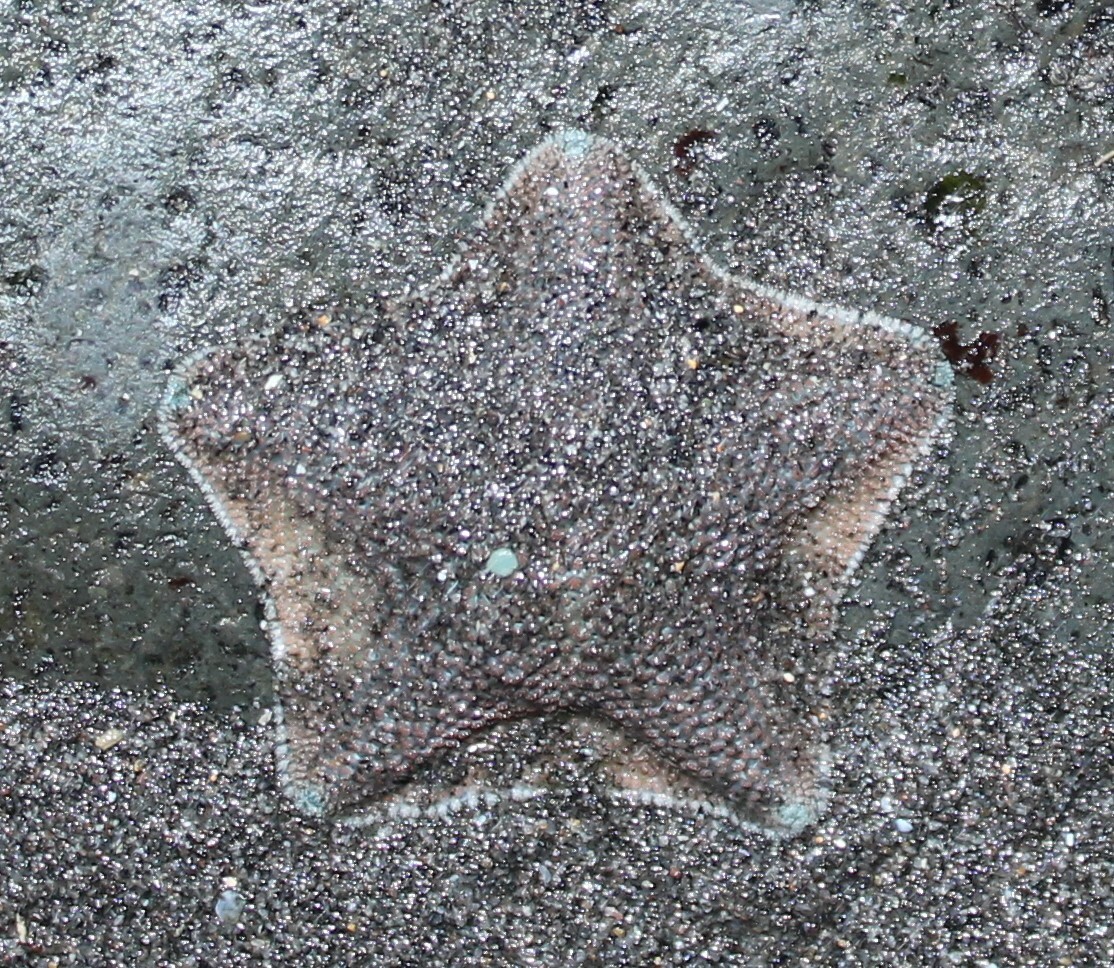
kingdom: Animalia
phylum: Echinodermata
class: Asteroidea
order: Valvatida
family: Asterinidae
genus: Patiriella
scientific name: Patiriella regularis
